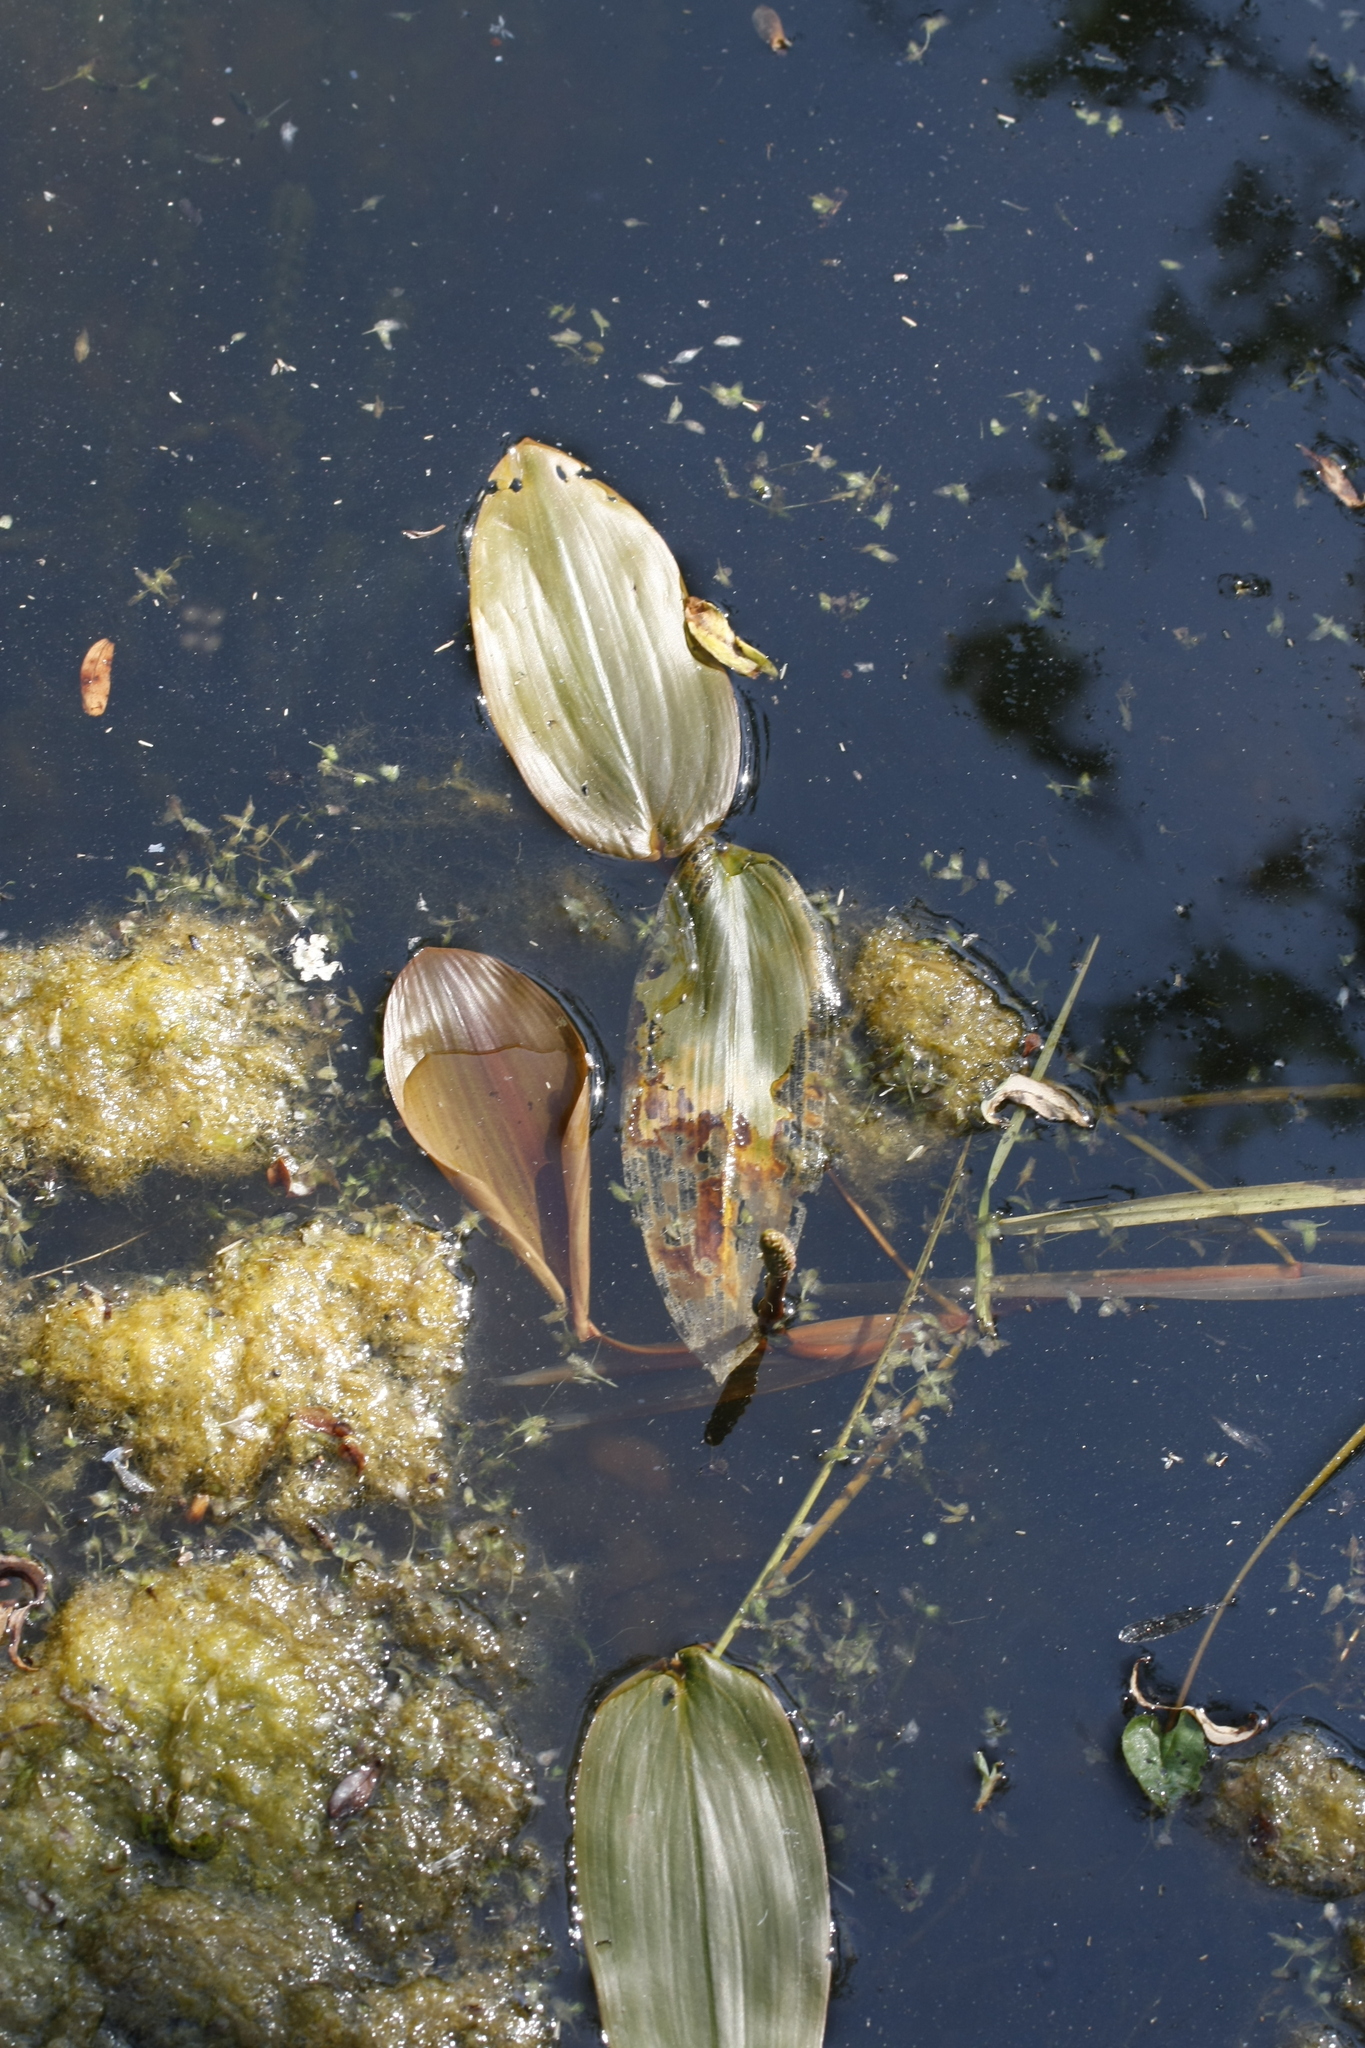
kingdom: Plantae
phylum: Tracheophyta
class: Liliopsida
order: Alismatales
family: Potamogetonaceae
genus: Potamogeton
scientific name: Potamogeton natans
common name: Broad-leaved pondweed
